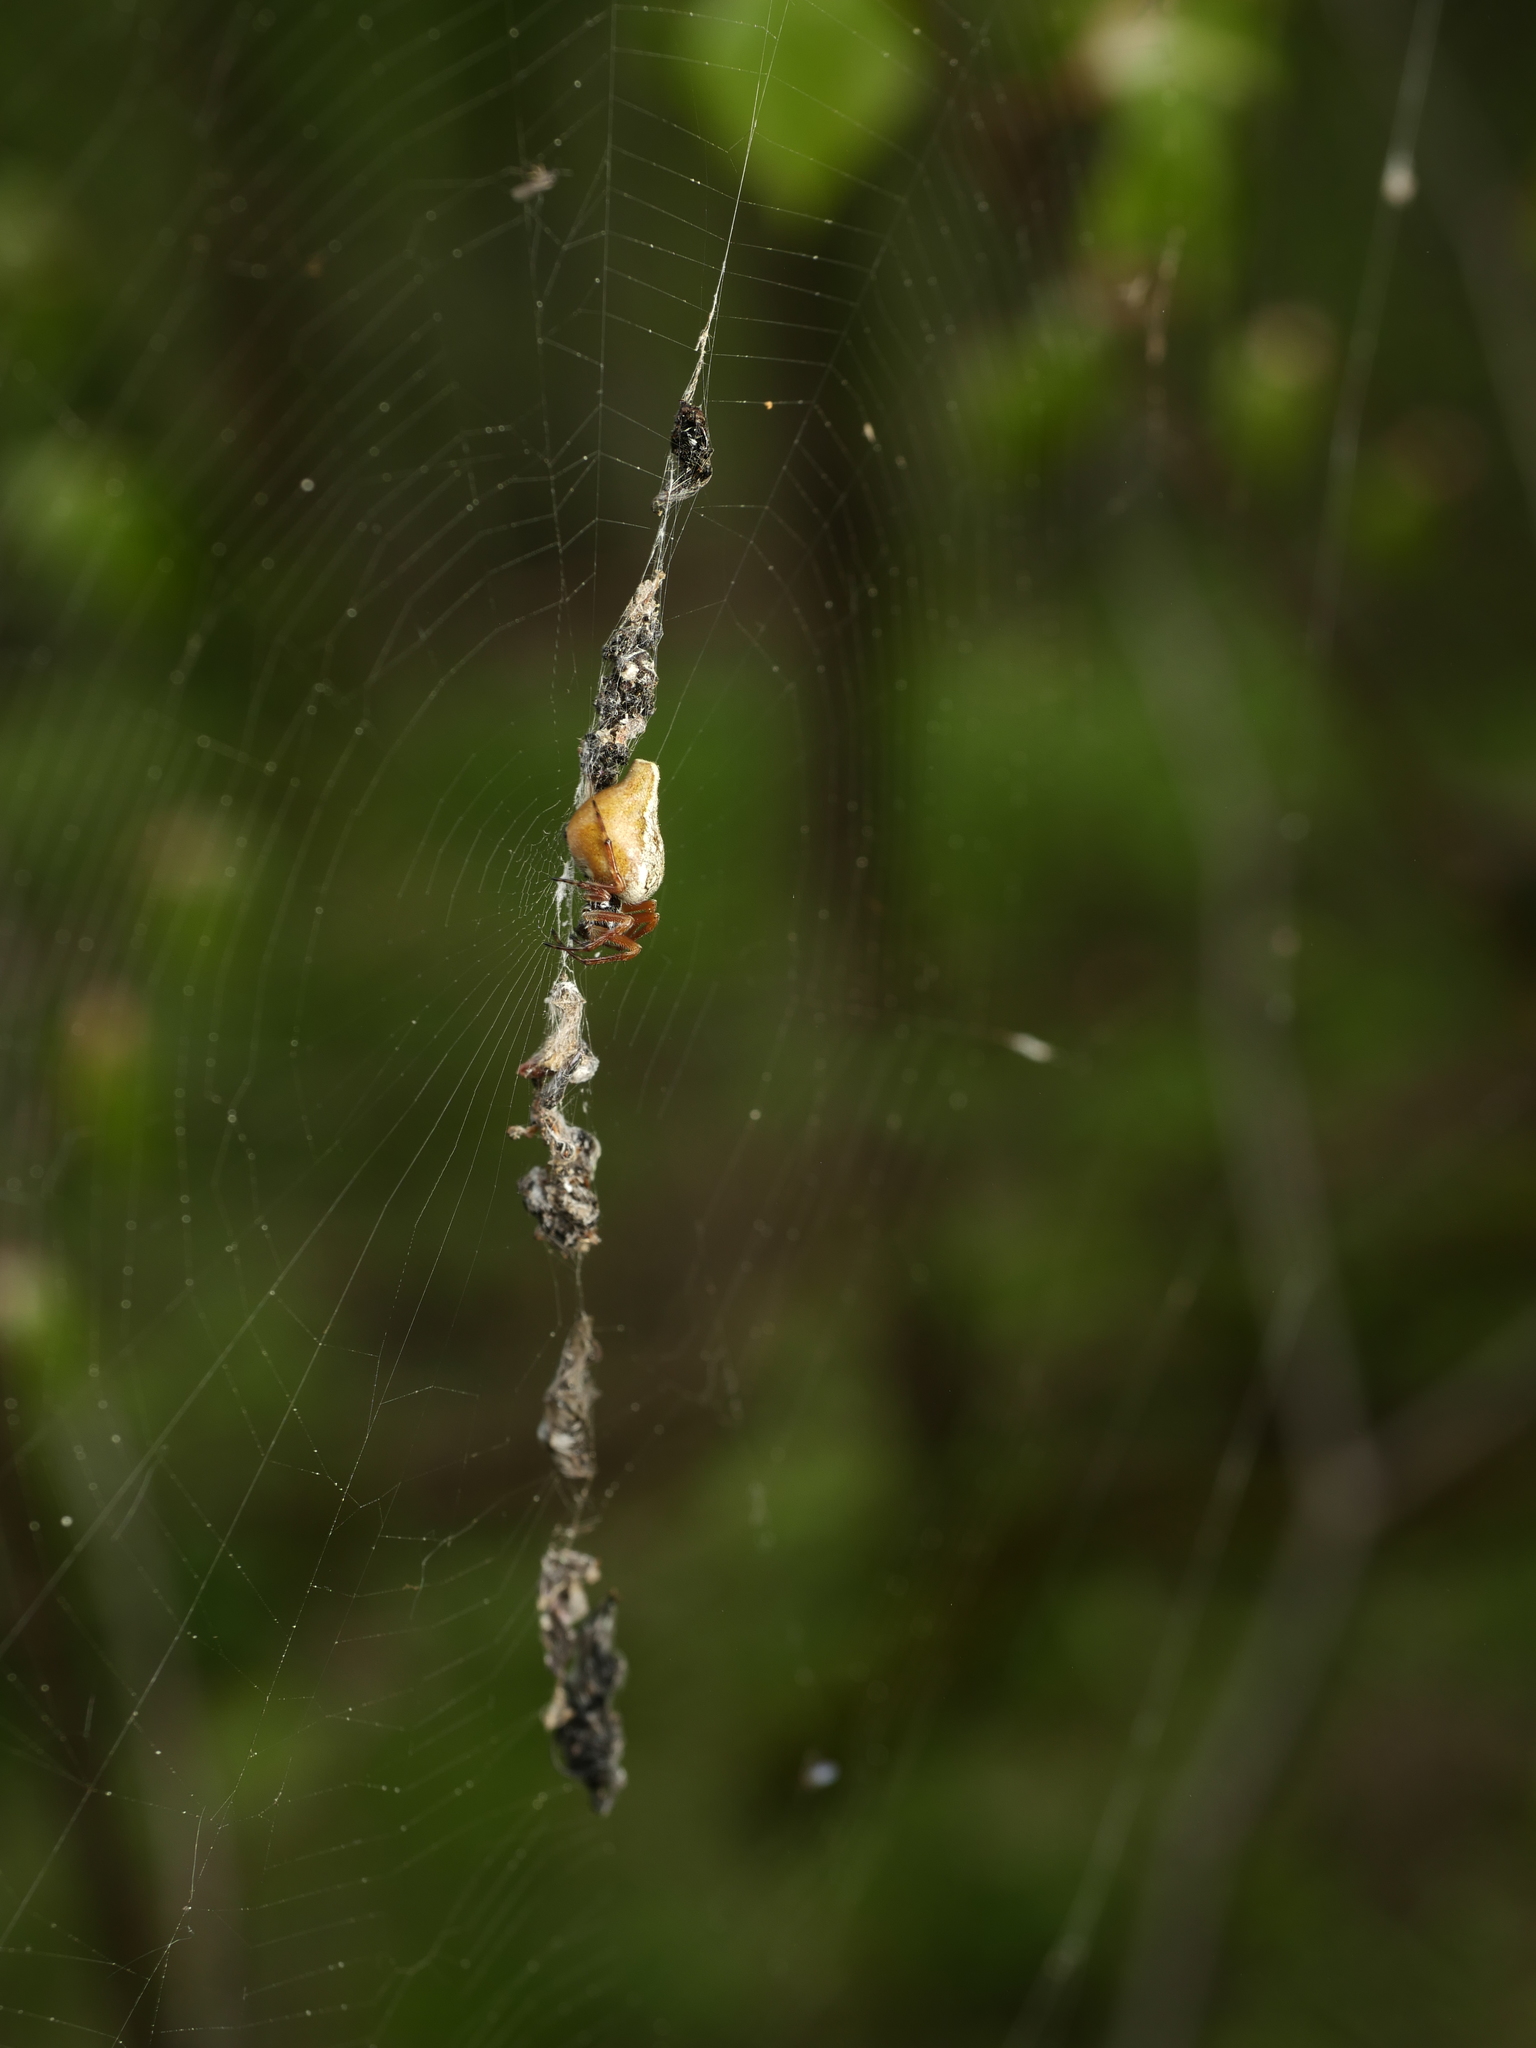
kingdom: Animalia
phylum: Arthropoda
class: Arachnida
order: Araneae
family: Araneidae
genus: Cyclosa
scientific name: Cyclosa conica
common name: Conical trashline orbweaver
